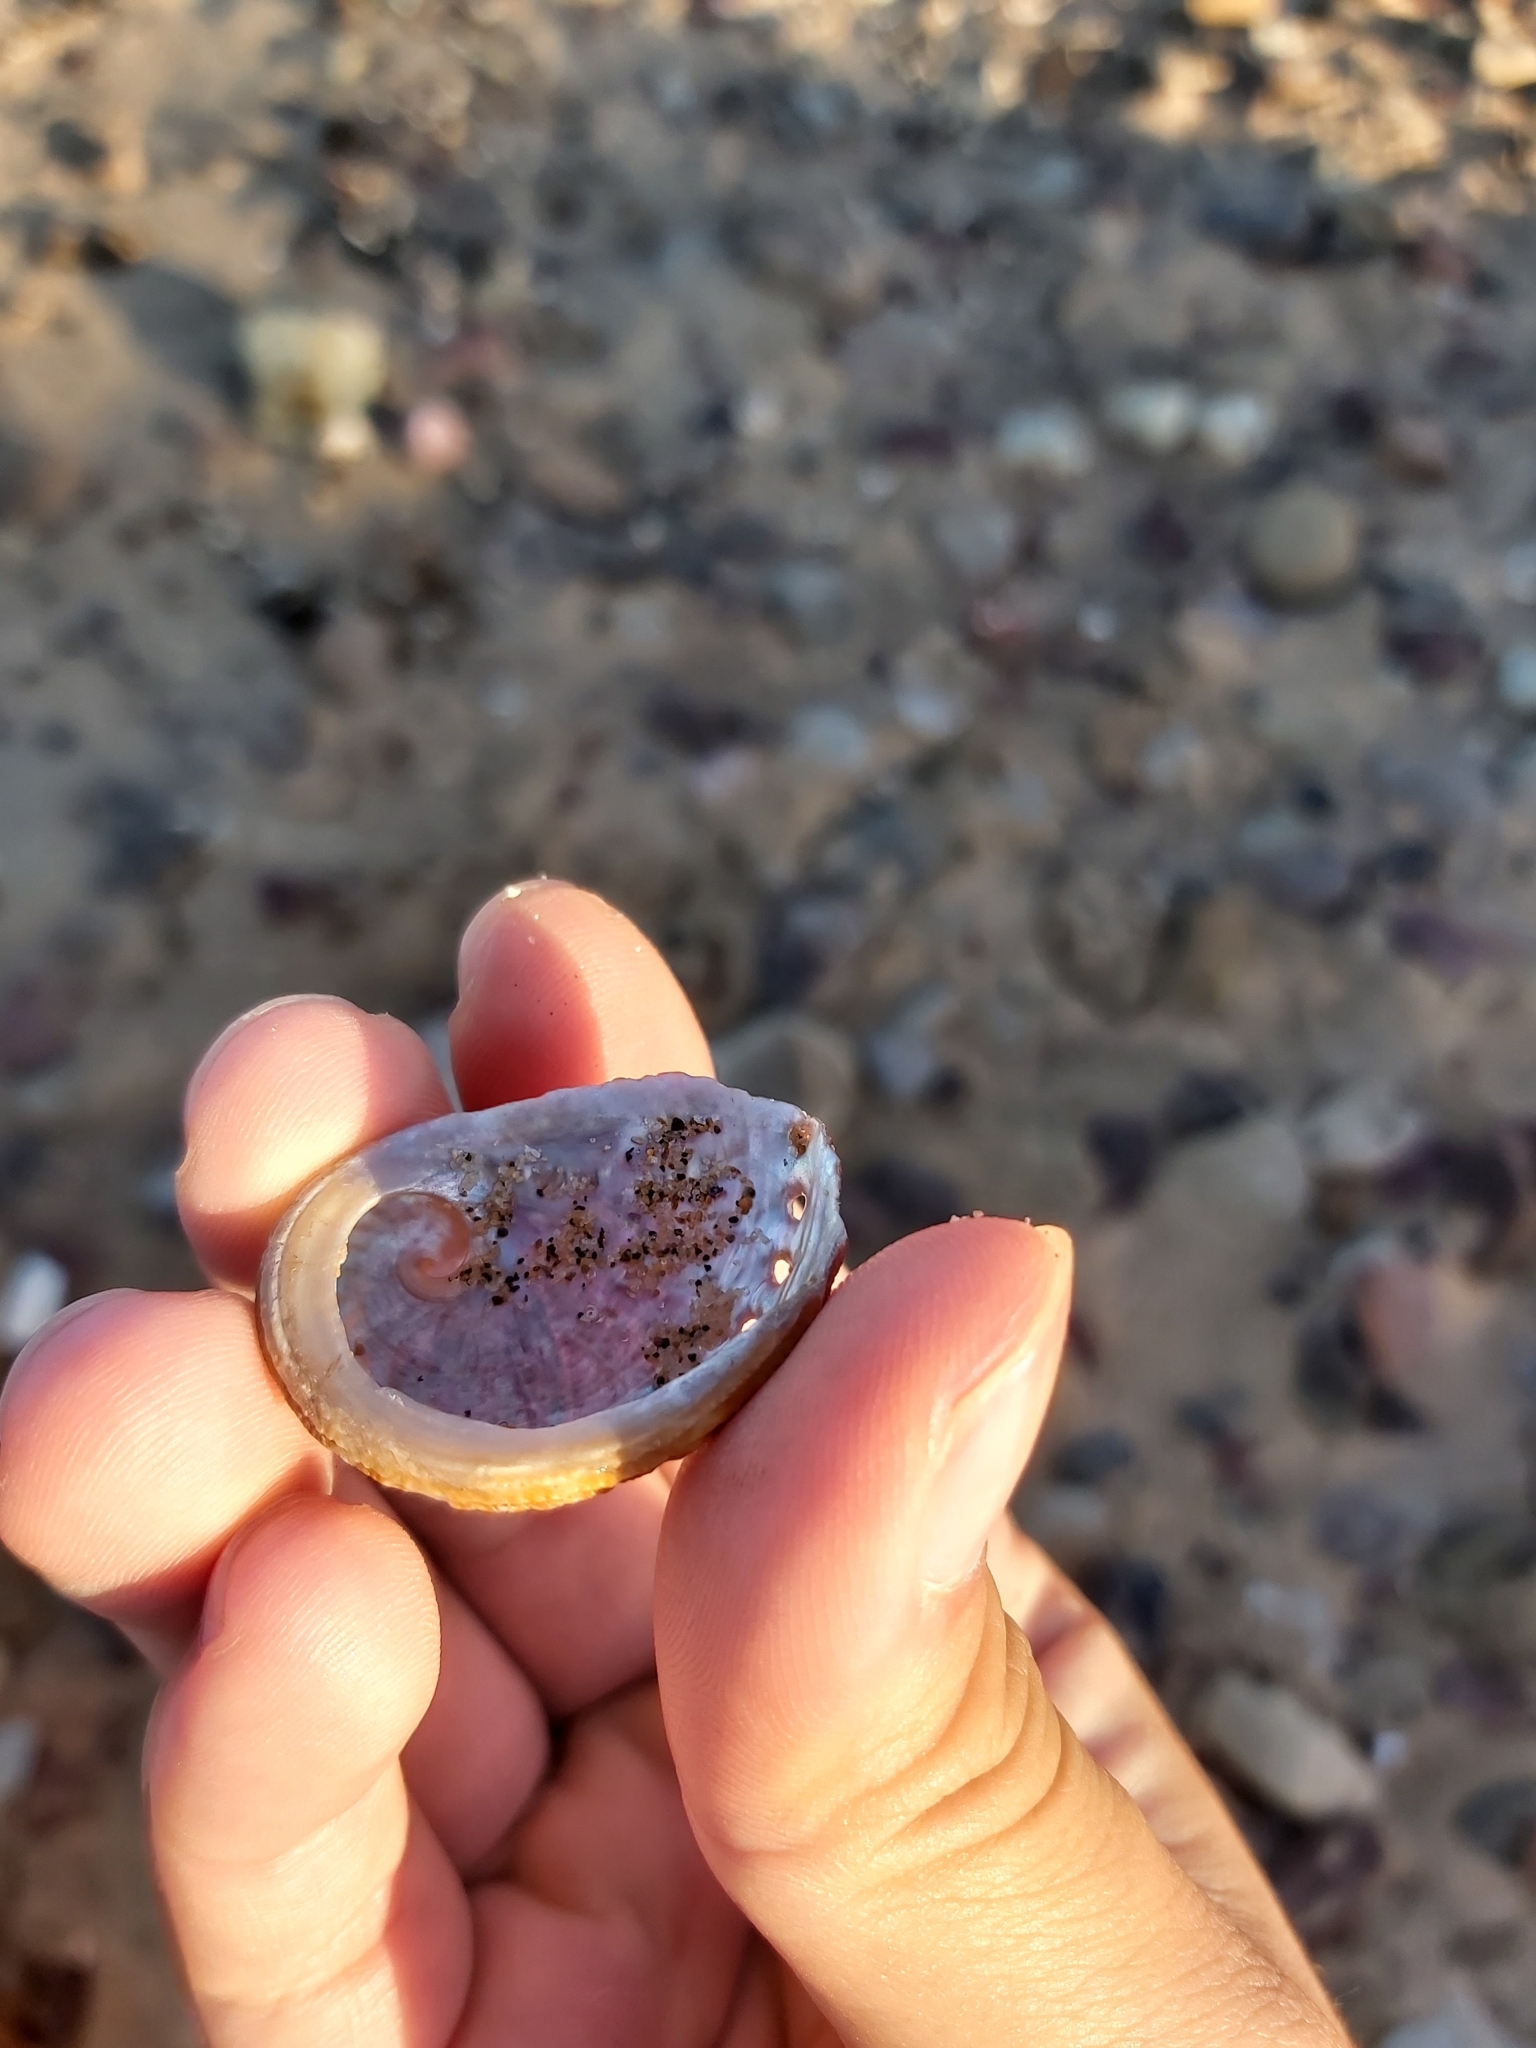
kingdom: Animalia
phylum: Mollusca
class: Gastropoda
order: Lepetellida
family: Haliotidae
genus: Haliotis
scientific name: Haliotis rubra
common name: Blacklip abalone
